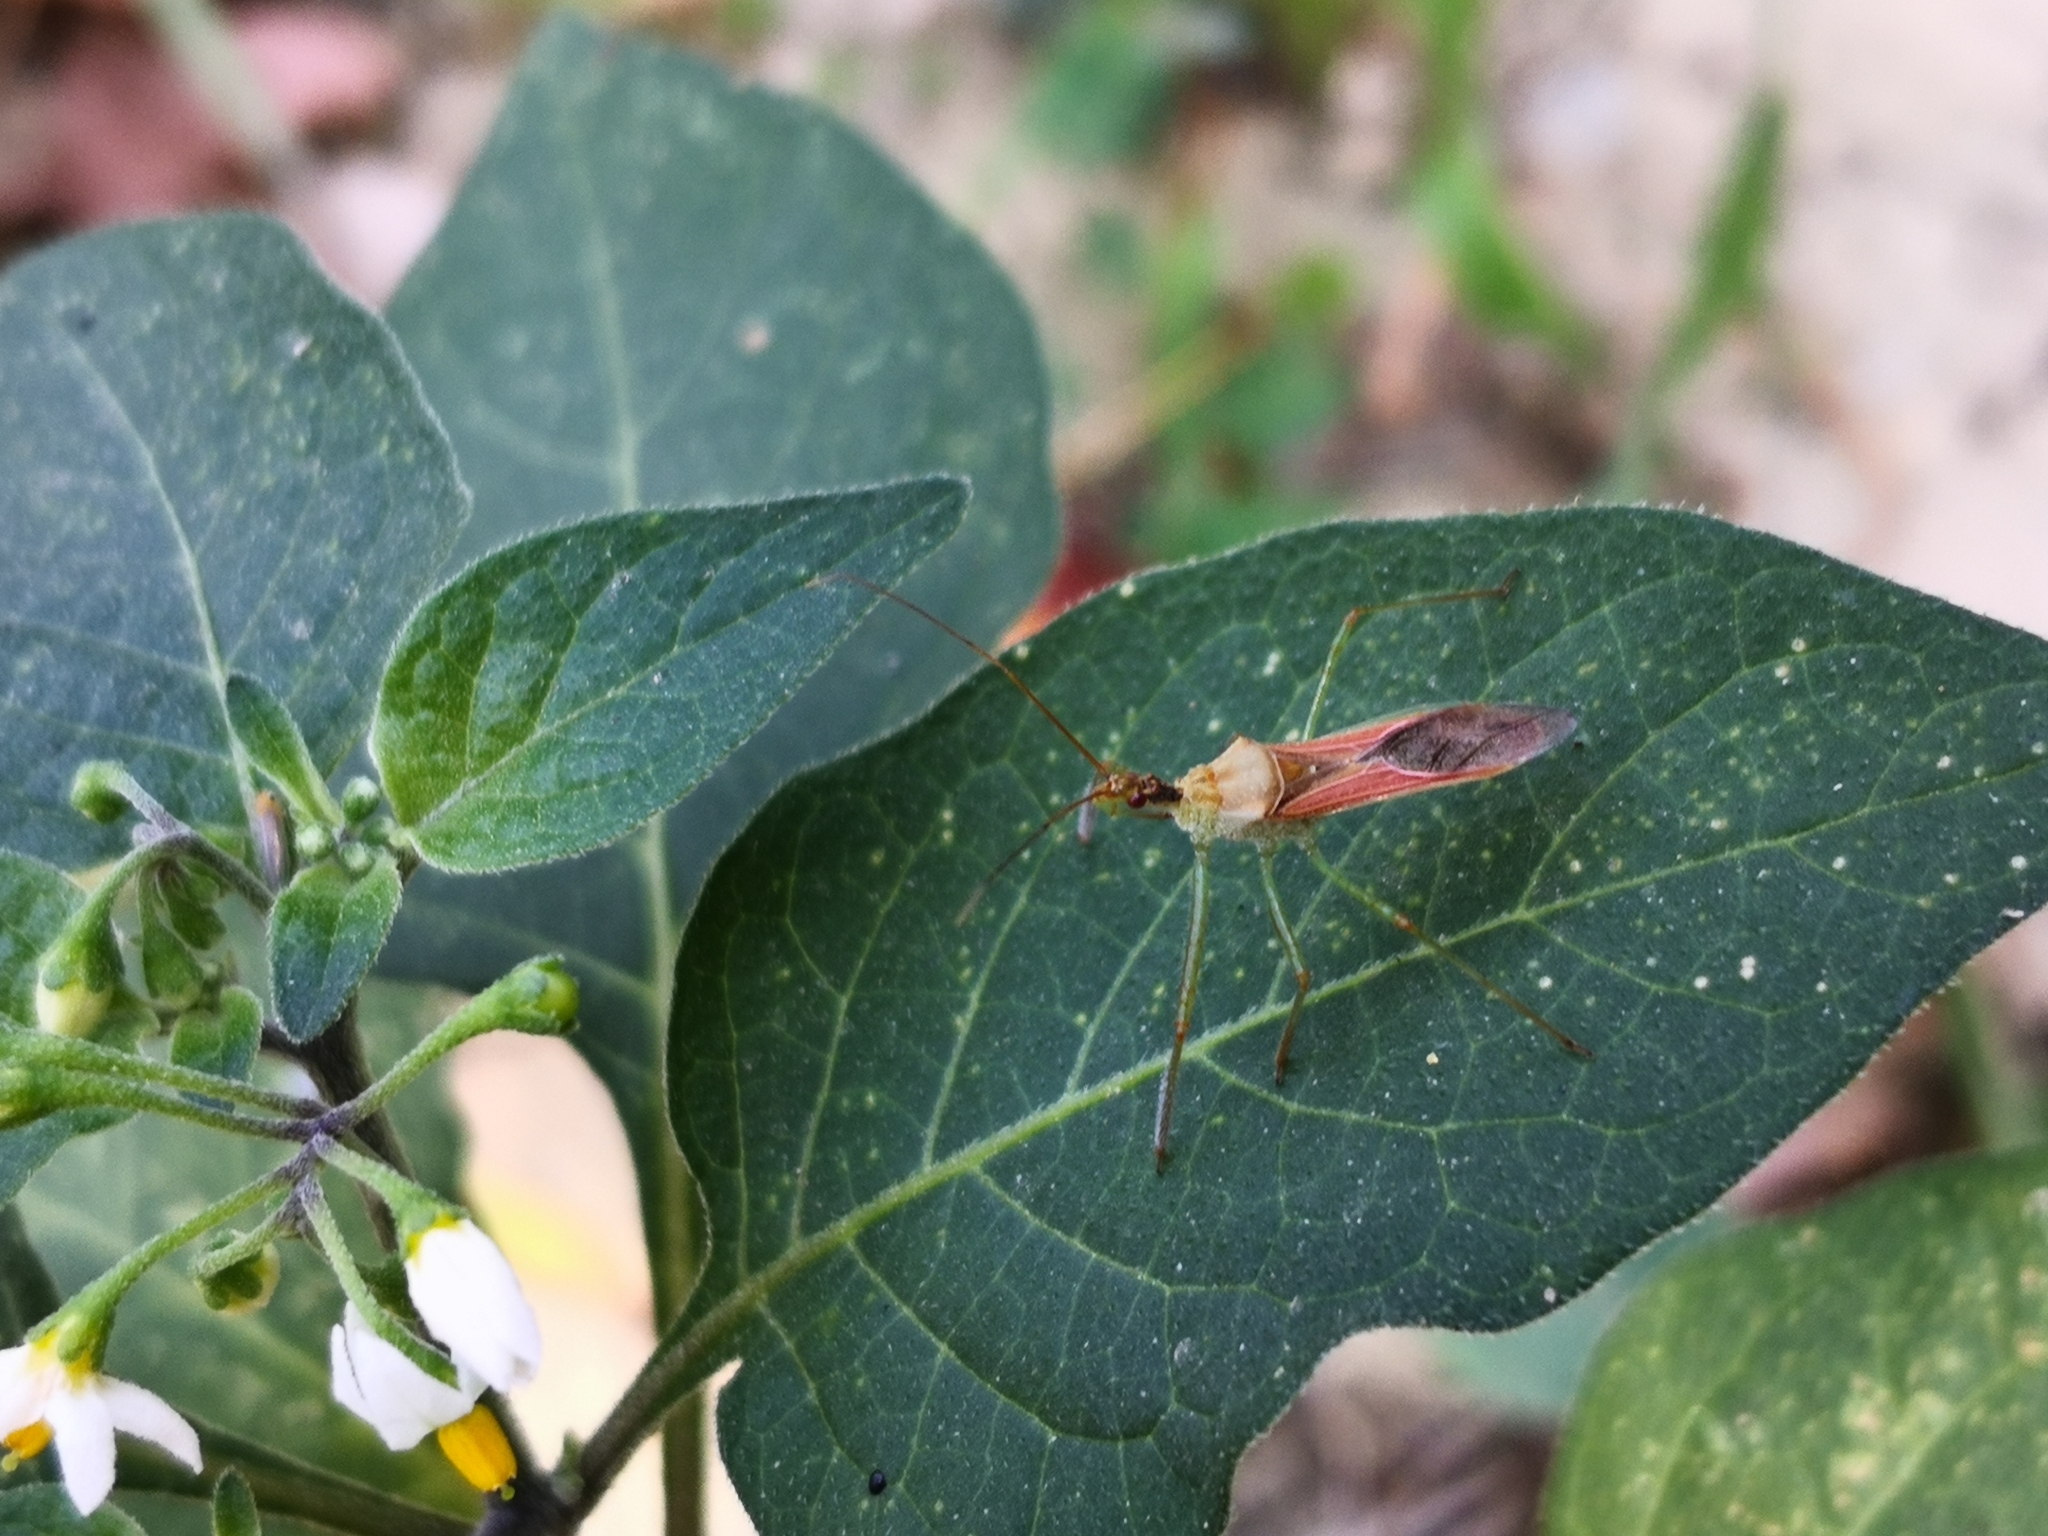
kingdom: Animalia
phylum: Arthropoda
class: Insecta
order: Hemiptera
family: Reduviidae
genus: Zelus
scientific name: Zelus renardii
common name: Assassin bug
